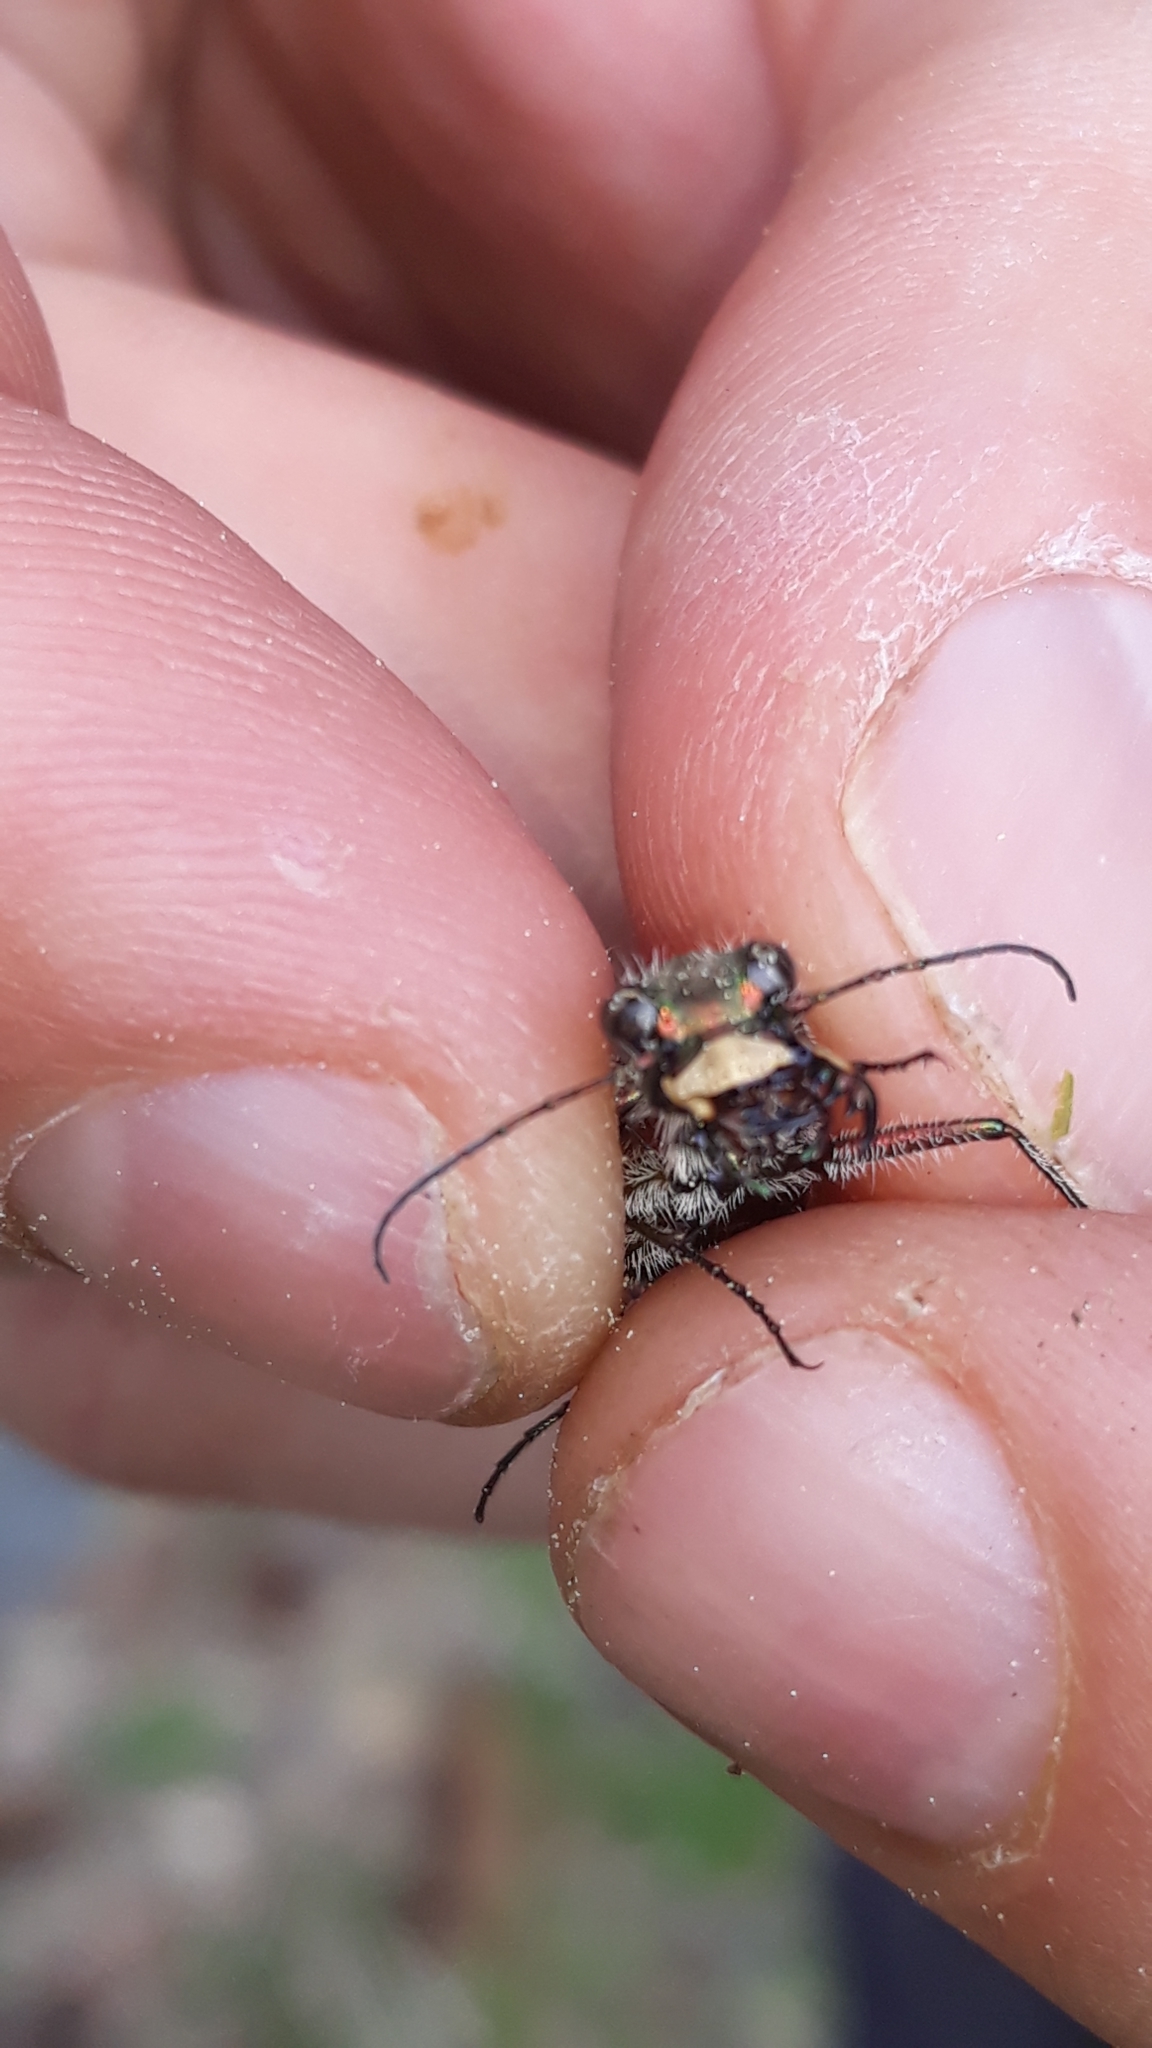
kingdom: Animalia
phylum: Arthropoda
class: Insecta
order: Coleoptera
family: Carabidae
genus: Cicindela
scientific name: Cicindela sylvicola
